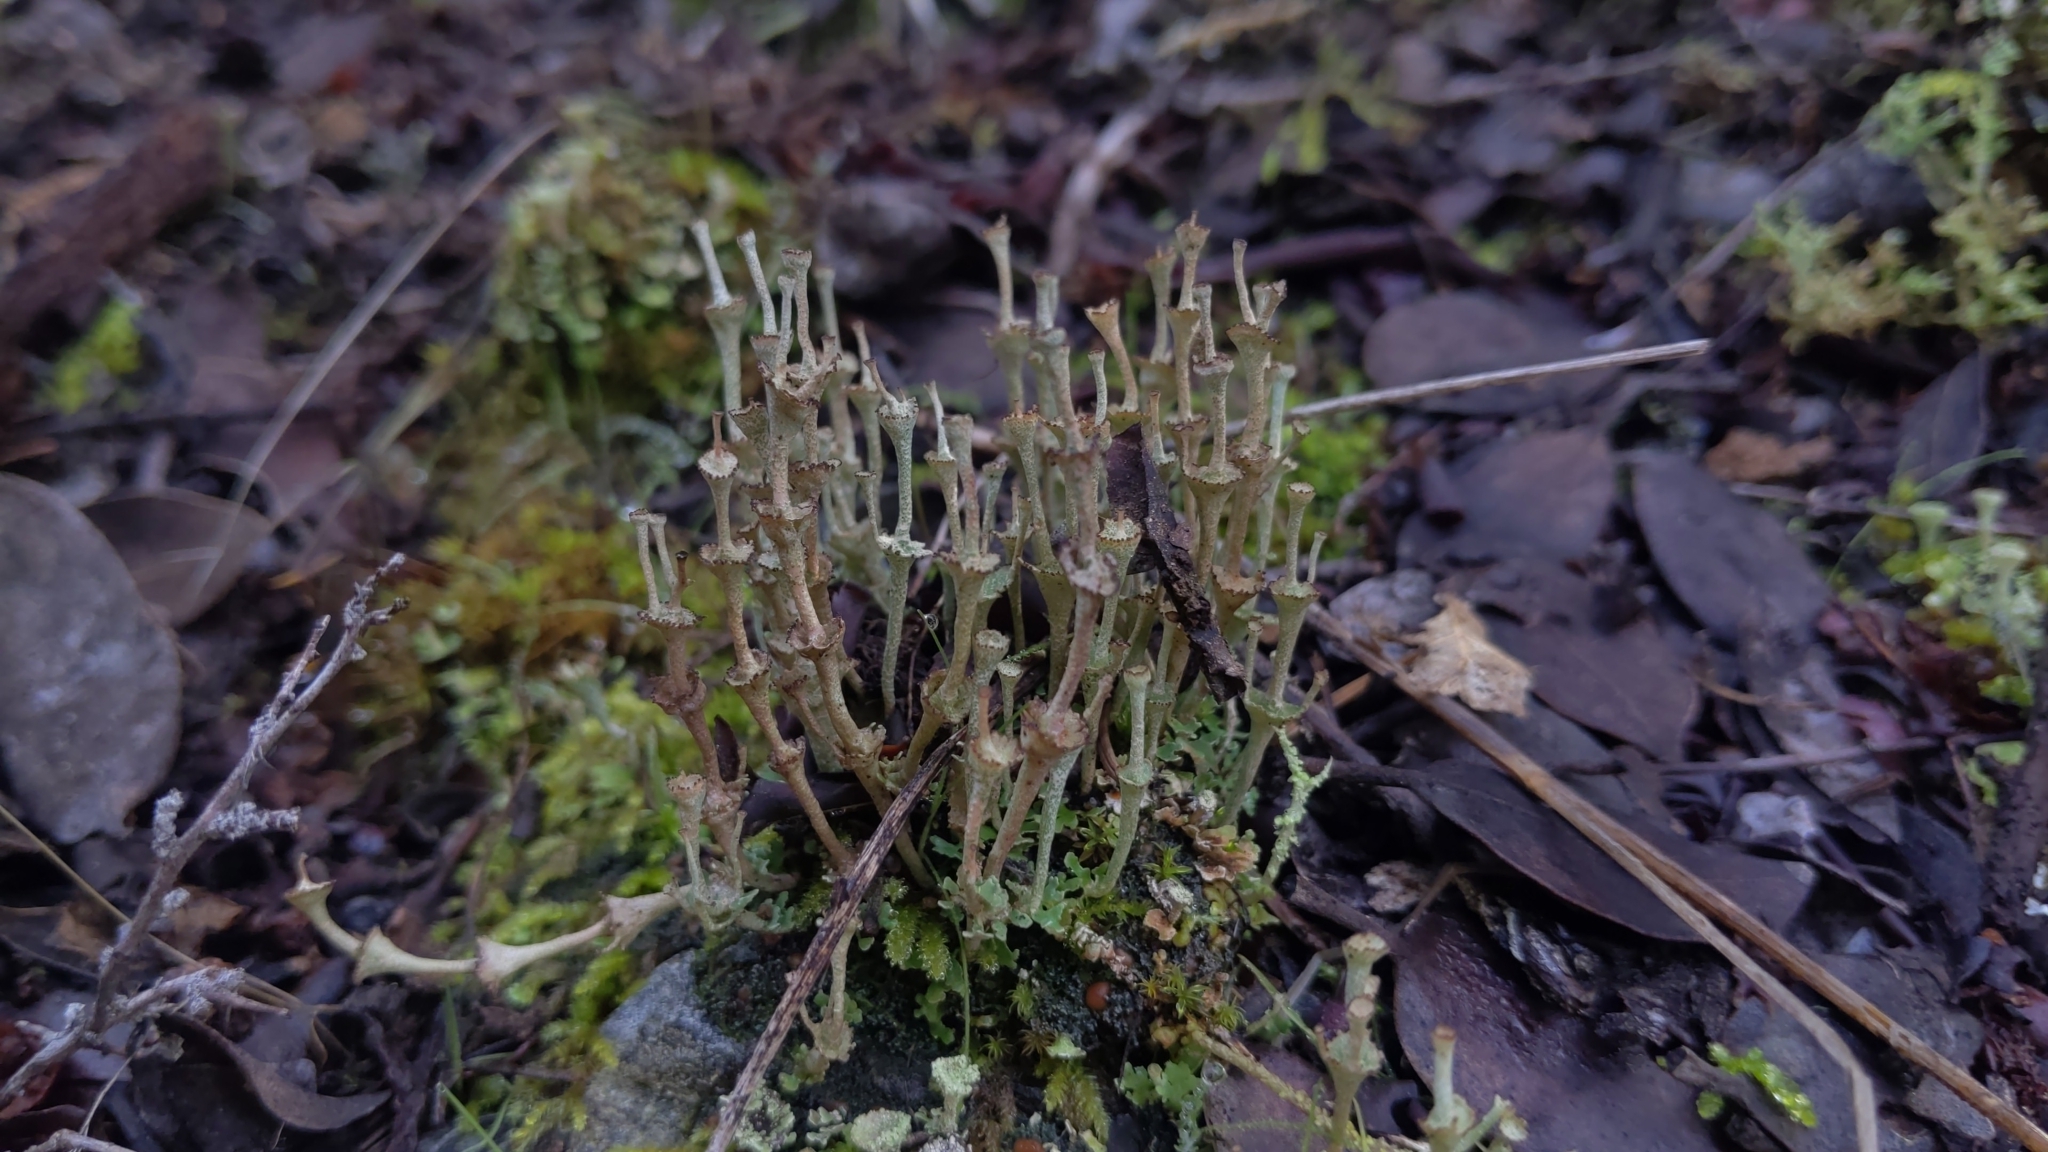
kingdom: Fungi
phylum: Ascomycota
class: Lecanoromycetes
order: Lecanorales
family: Cladoniaceae
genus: Cladonia
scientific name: Cladonia cervicornis
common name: Browned pixie-cup lichen
